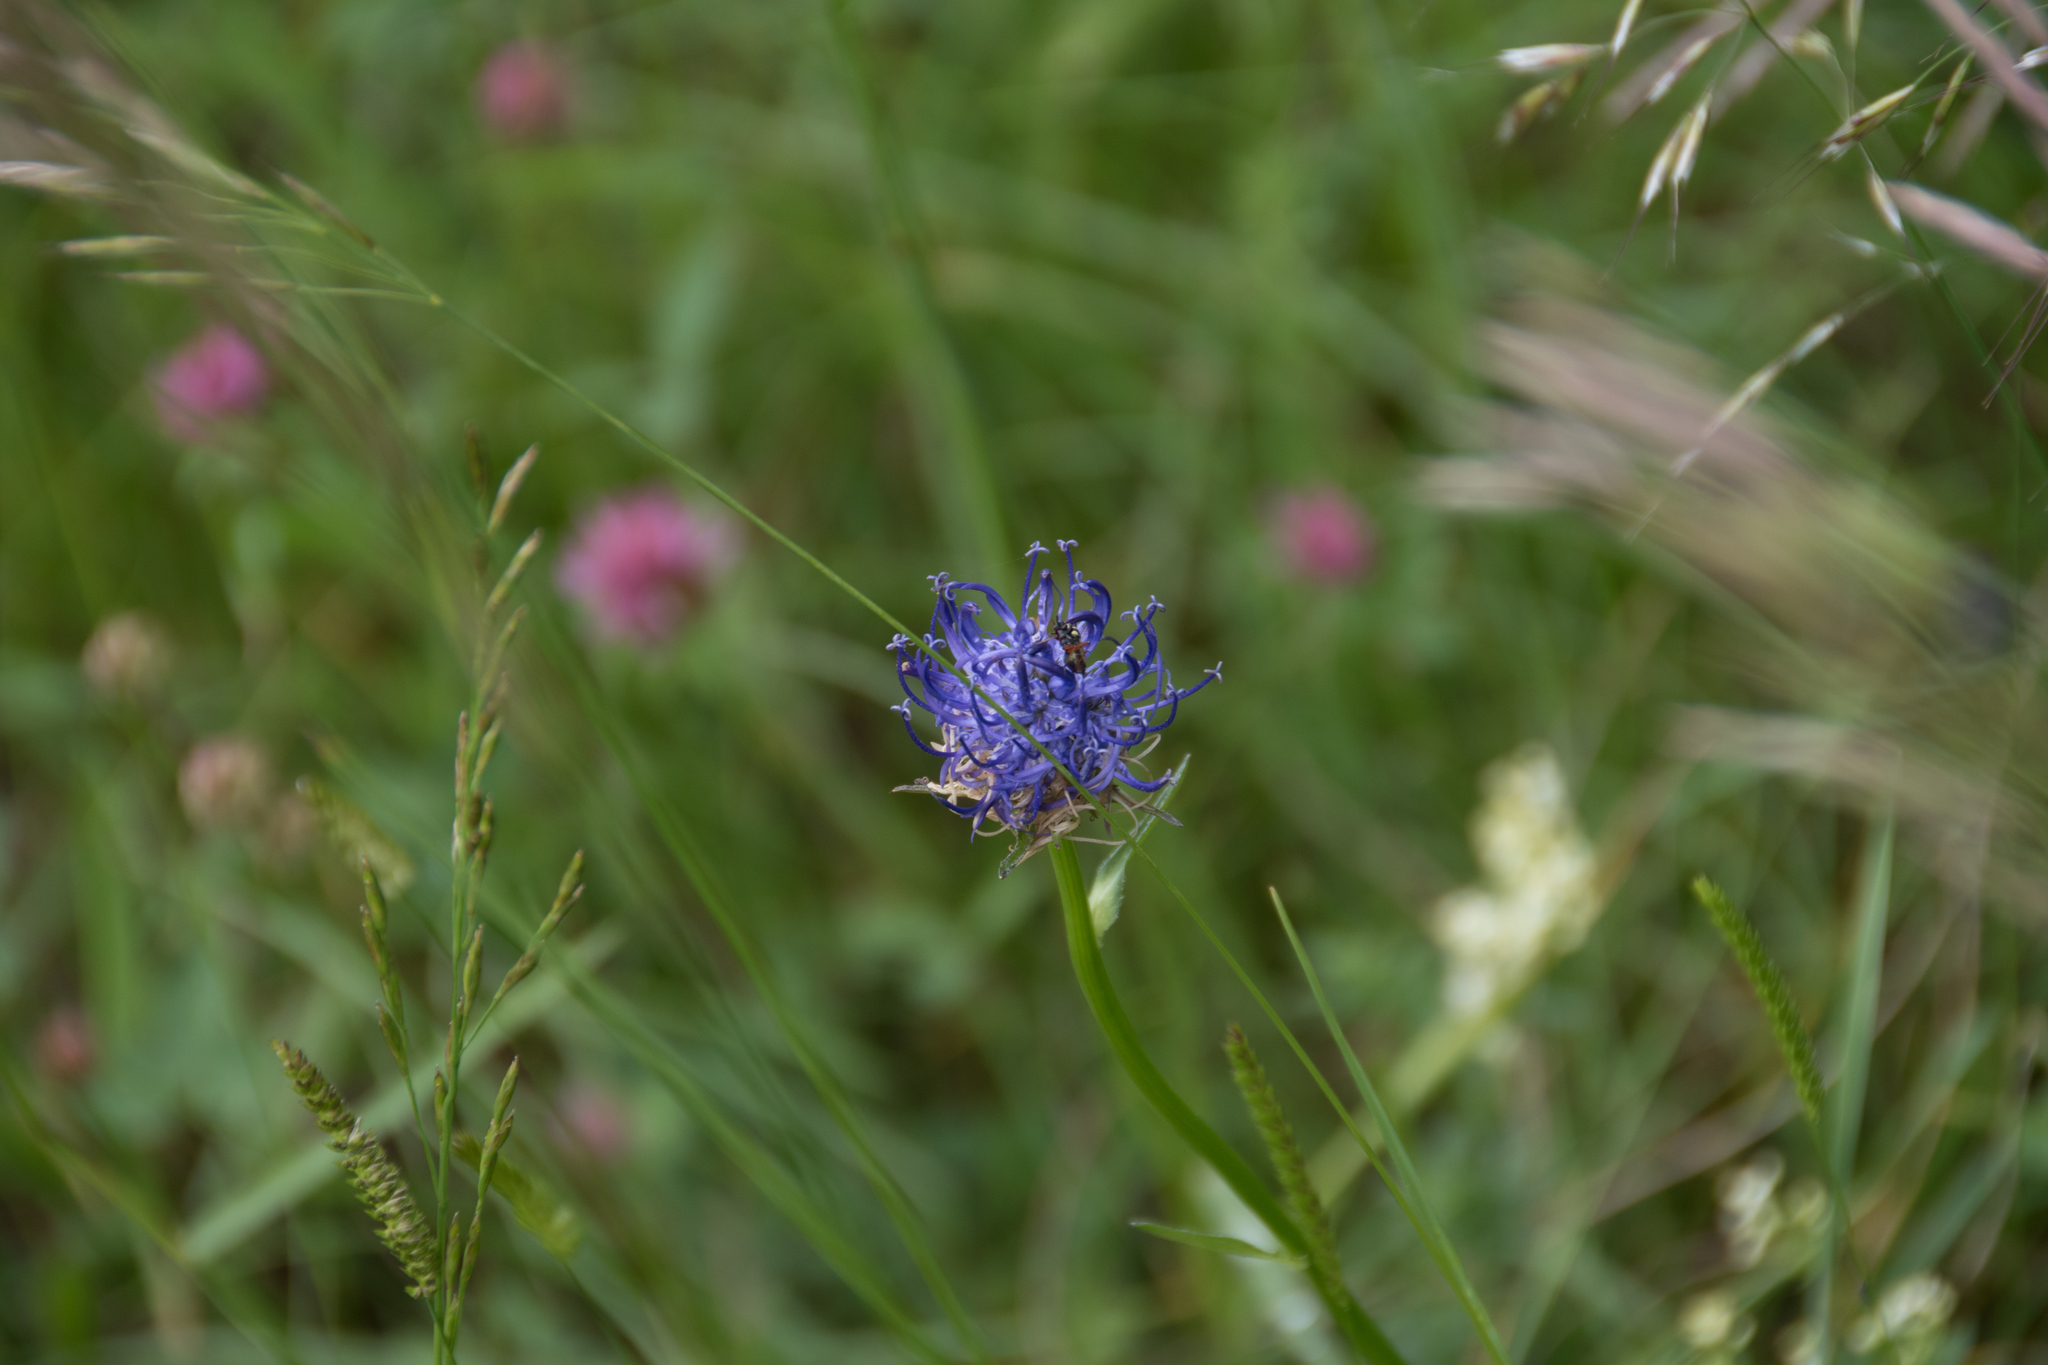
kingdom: Plantae
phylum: Tracheophyta
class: Magnoliopsida
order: Asterales
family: Campanulaceae
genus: Phyteuma
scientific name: Phyteuma orbiculare
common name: Round-headed rampion
